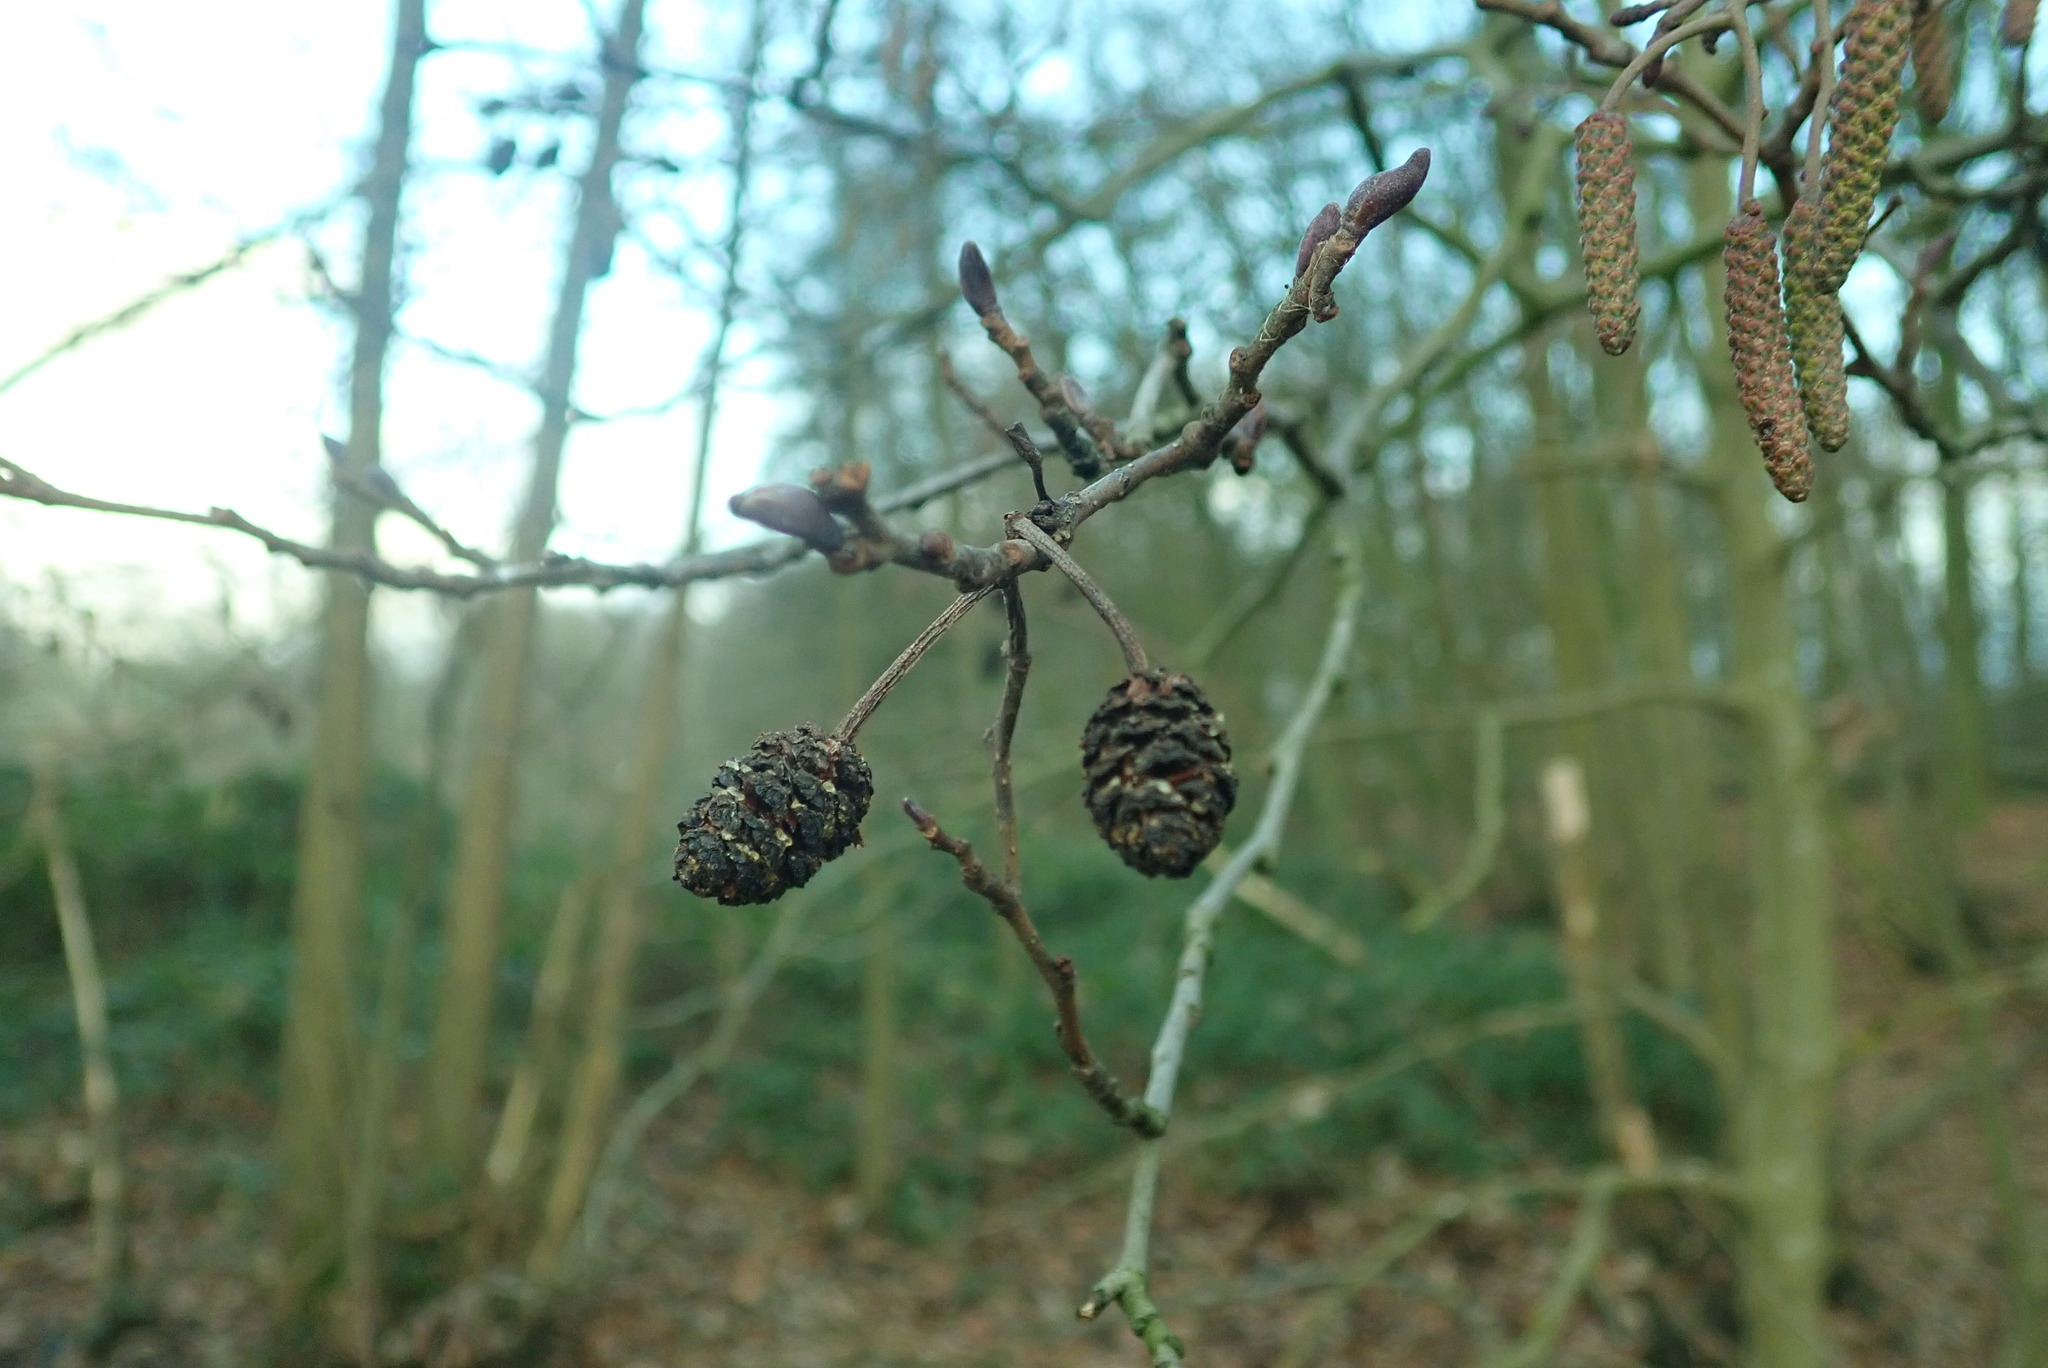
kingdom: Plantae
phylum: Tracheophyta
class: Magnoliopsida
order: Fagales
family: Betulaceae
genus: Alnus
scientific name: Alnus glutinosa
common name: Black alder
